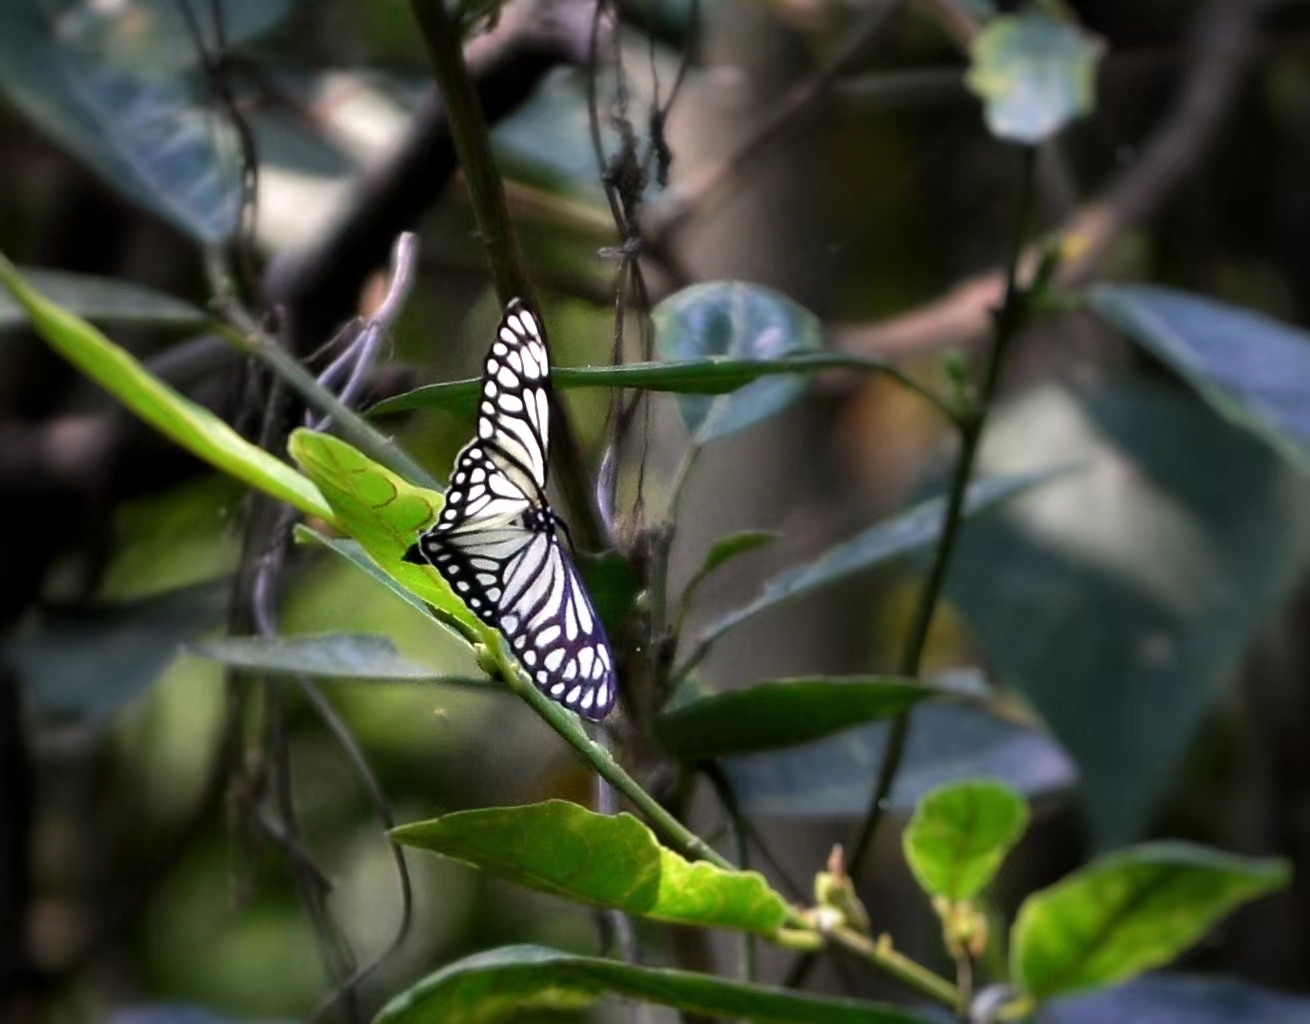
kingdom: Animalia
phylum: Arthropoda
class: Insecta
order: Lepidoptera
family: Zygaenidae
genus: Cyclosia
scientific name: Cyclosia papilionaris
